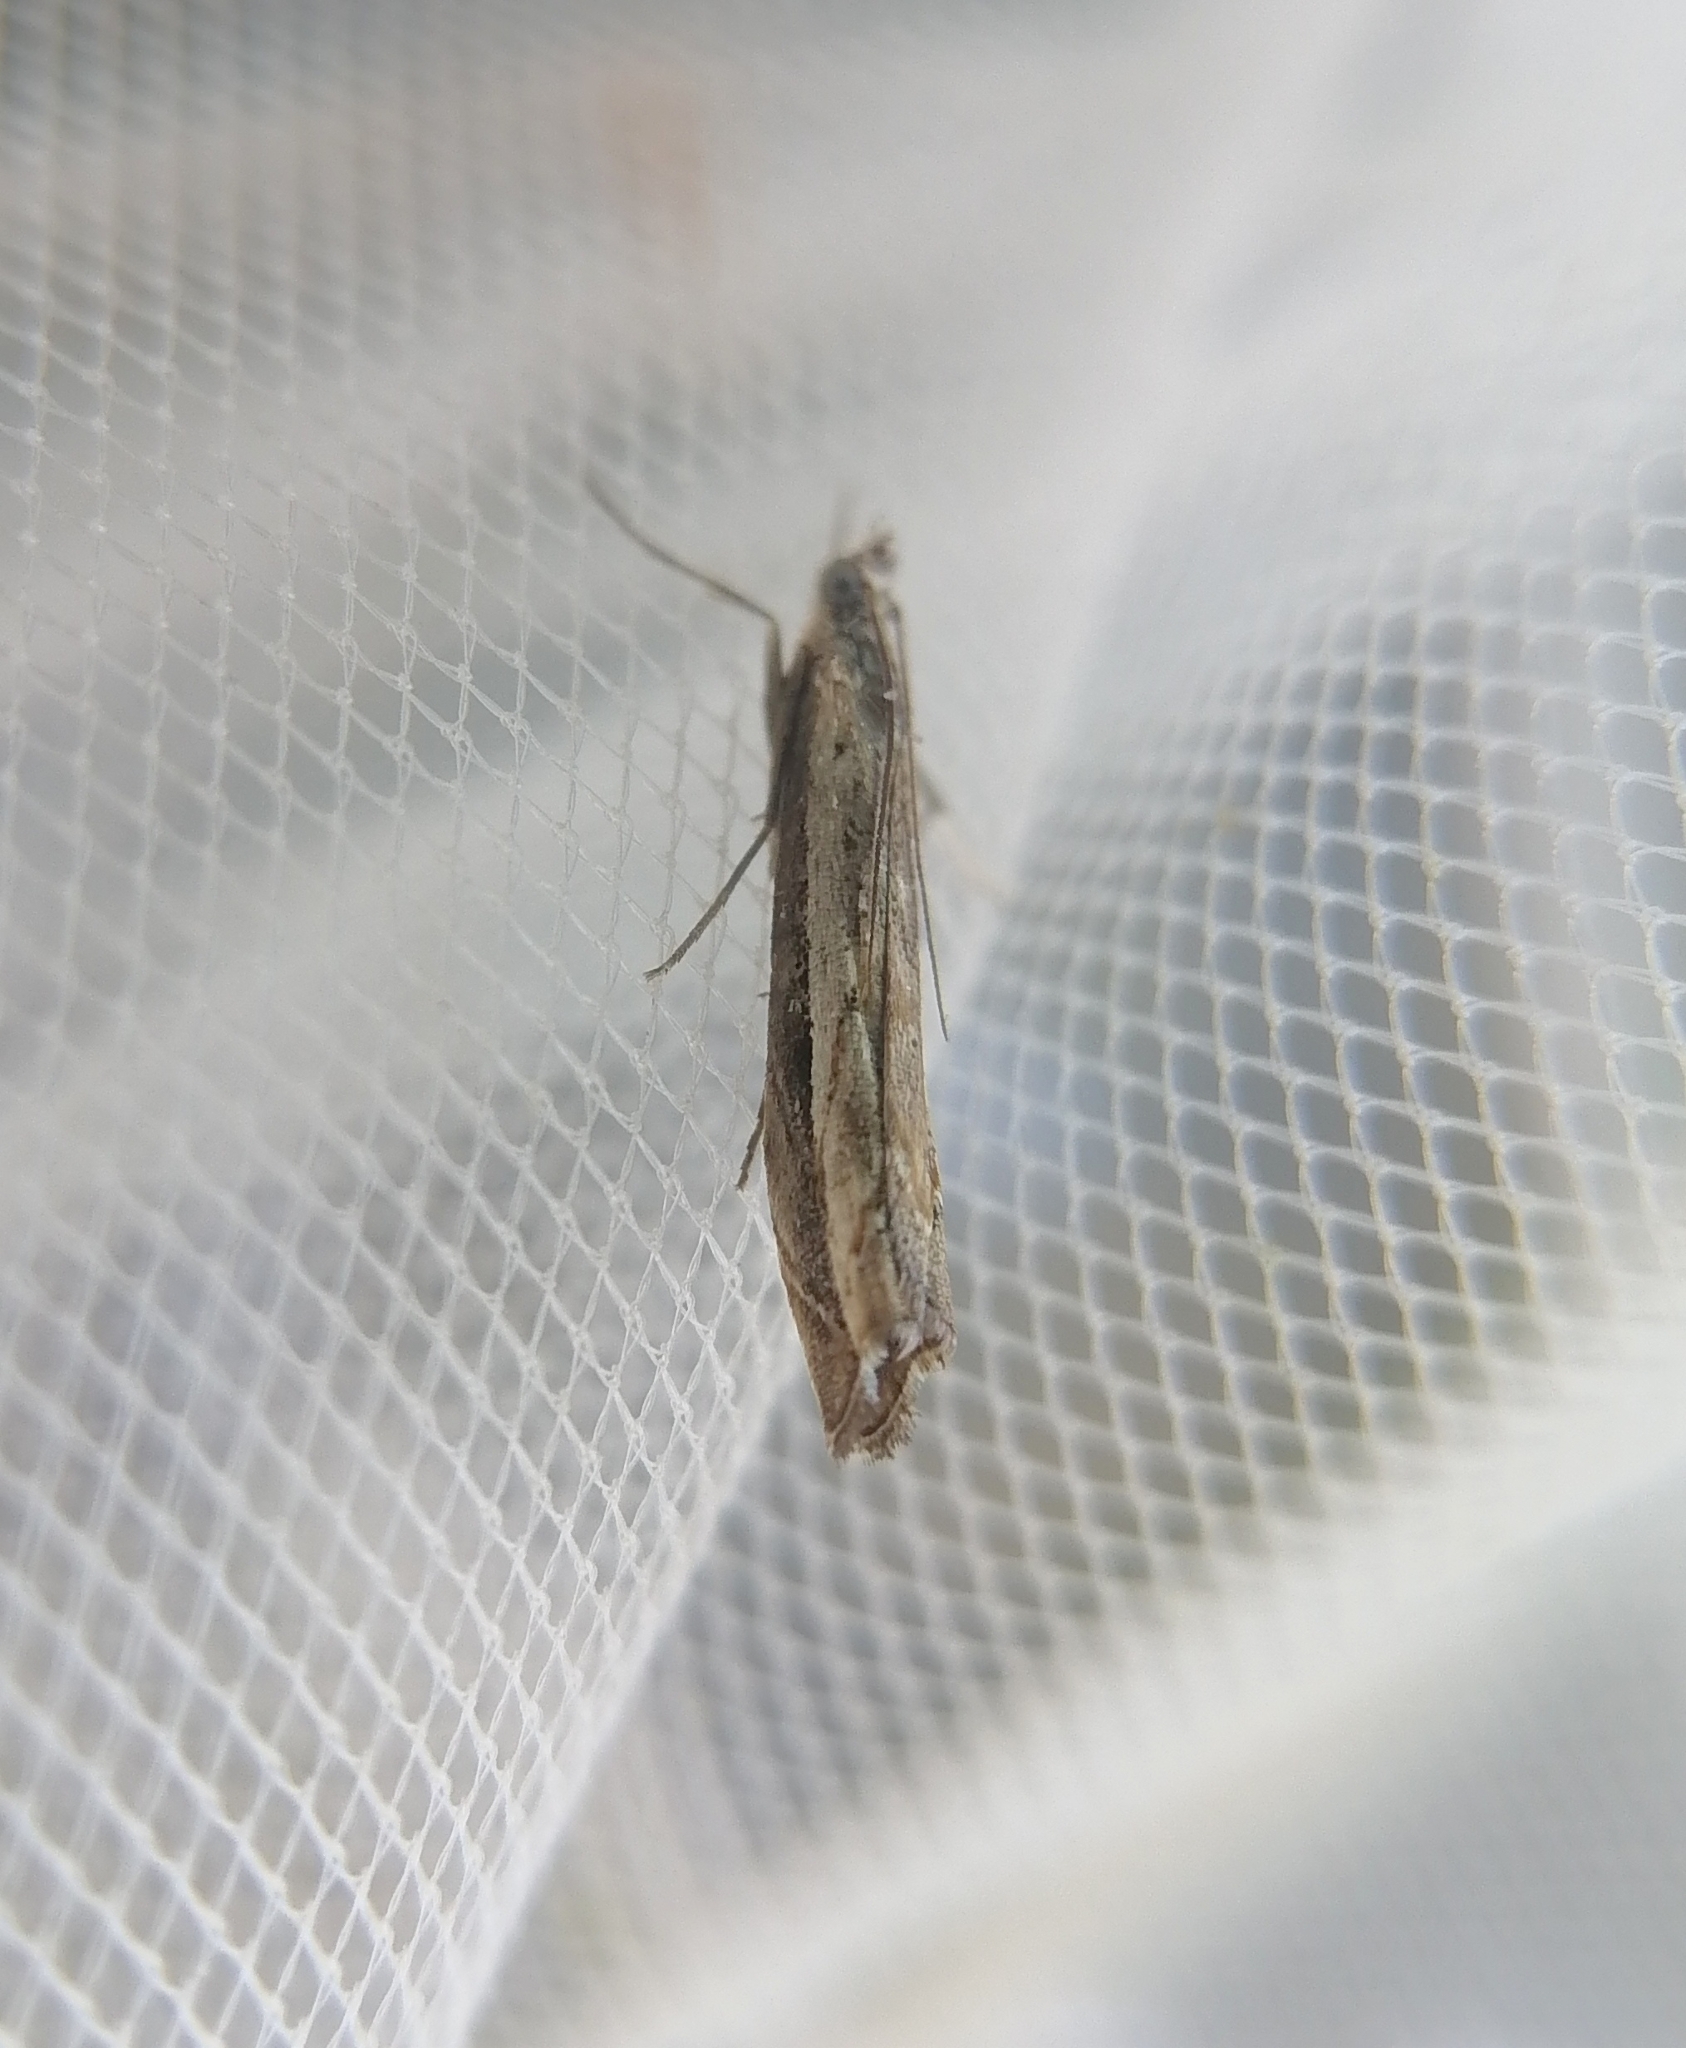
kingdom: Animalia
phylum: Arthropoda
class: Insecta
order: Lepidoptera
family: Crambidae
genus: Platytes
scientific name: Platytes alpinella
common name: Hook-tipped grass-veneer
